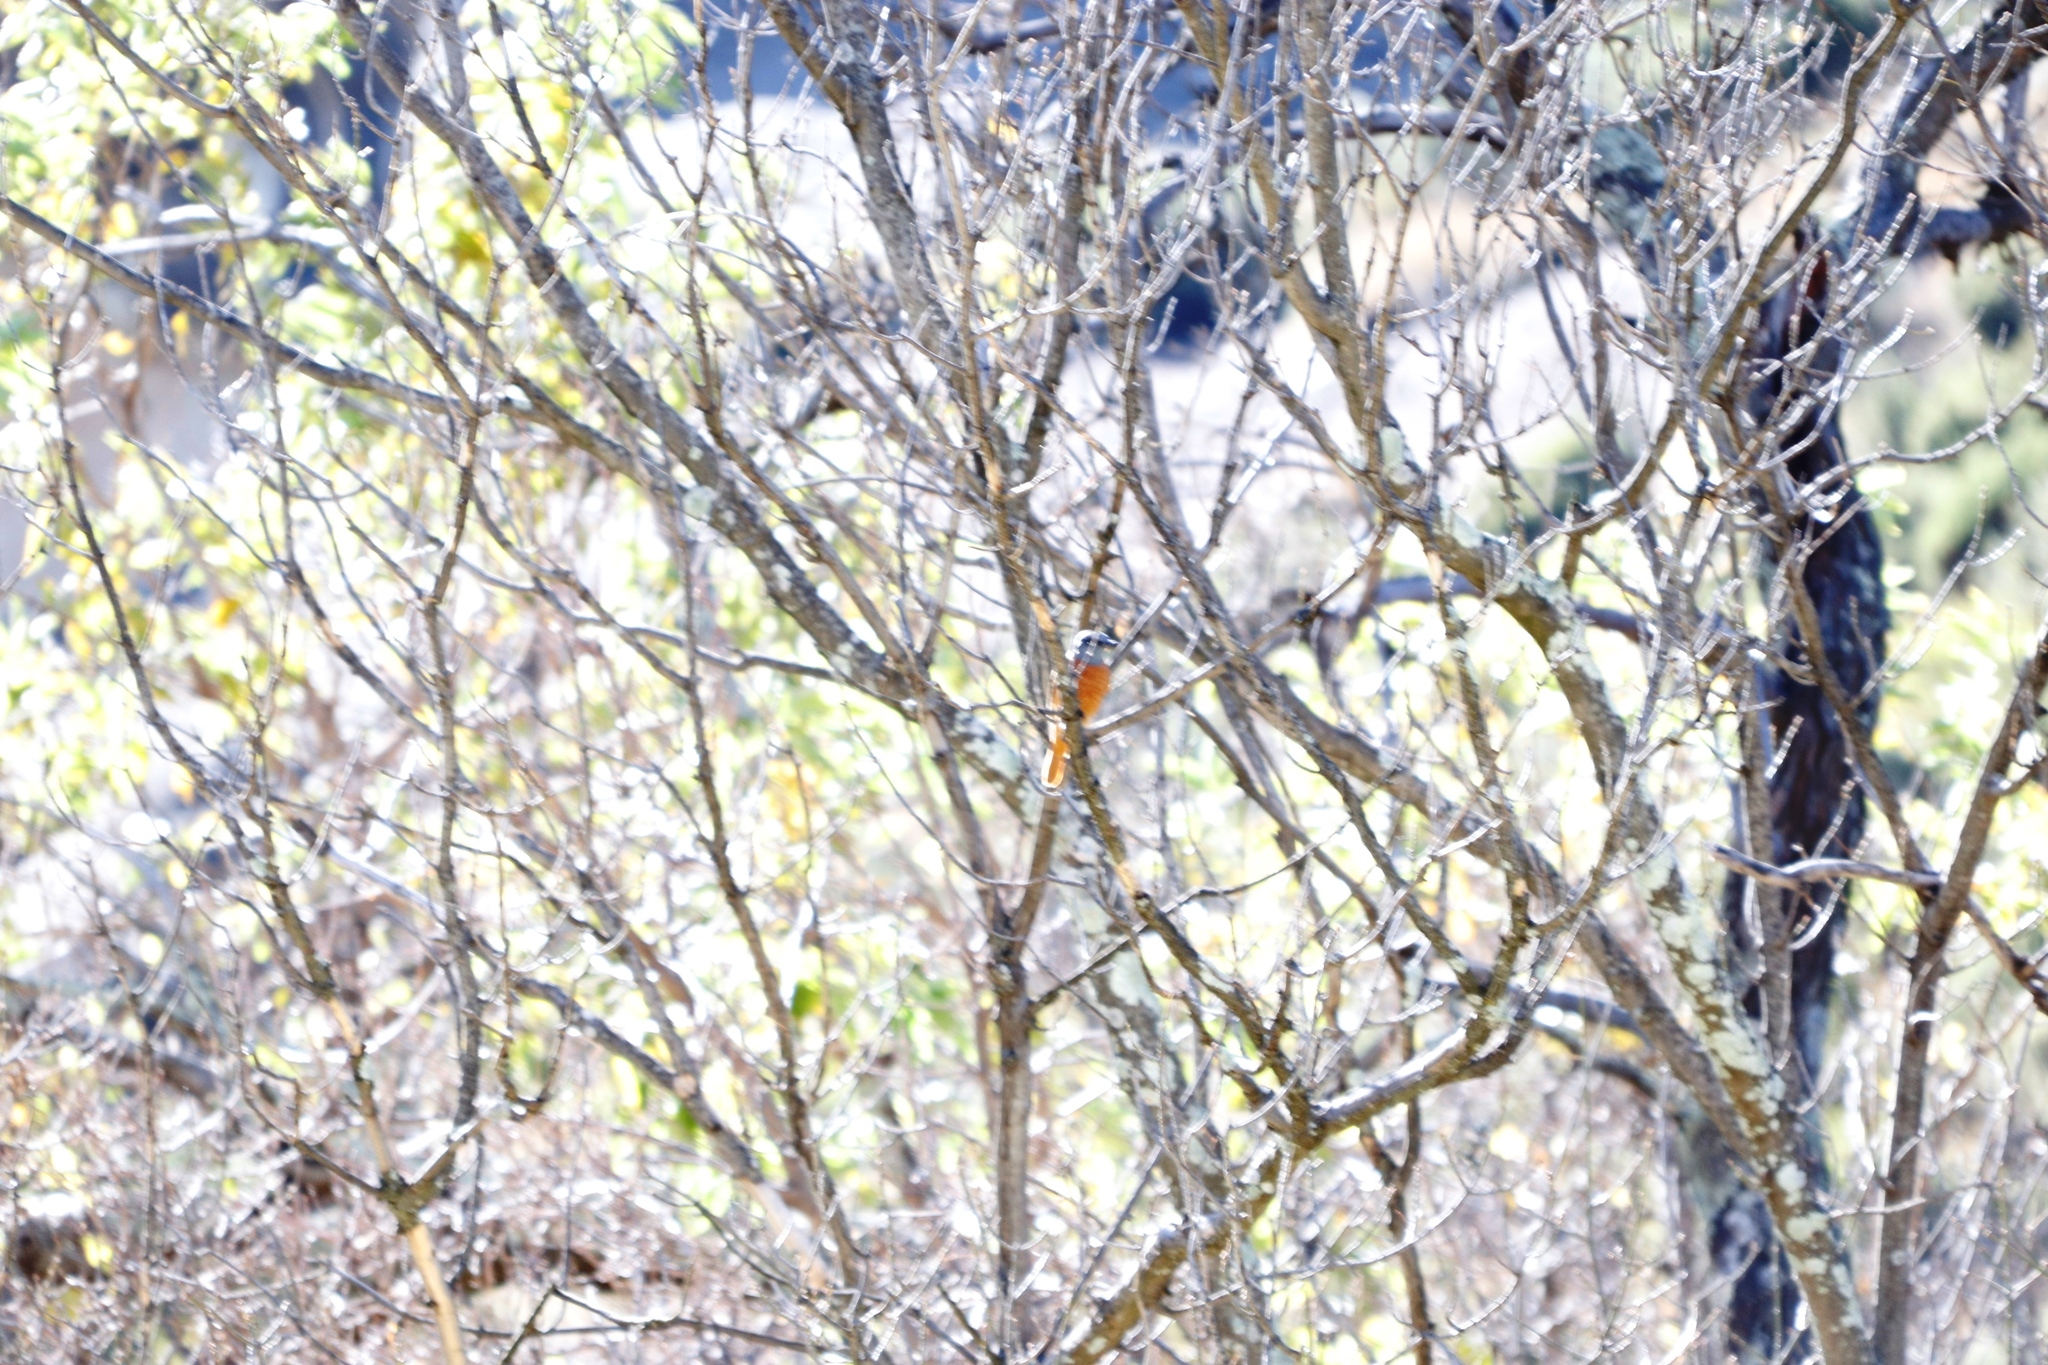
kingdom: Animalia
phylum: Chordata
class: Aves
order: Passeriformes
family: Muscicapidae
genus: Monticola
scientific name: Monticola rupestris
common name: Cape rock thrush
